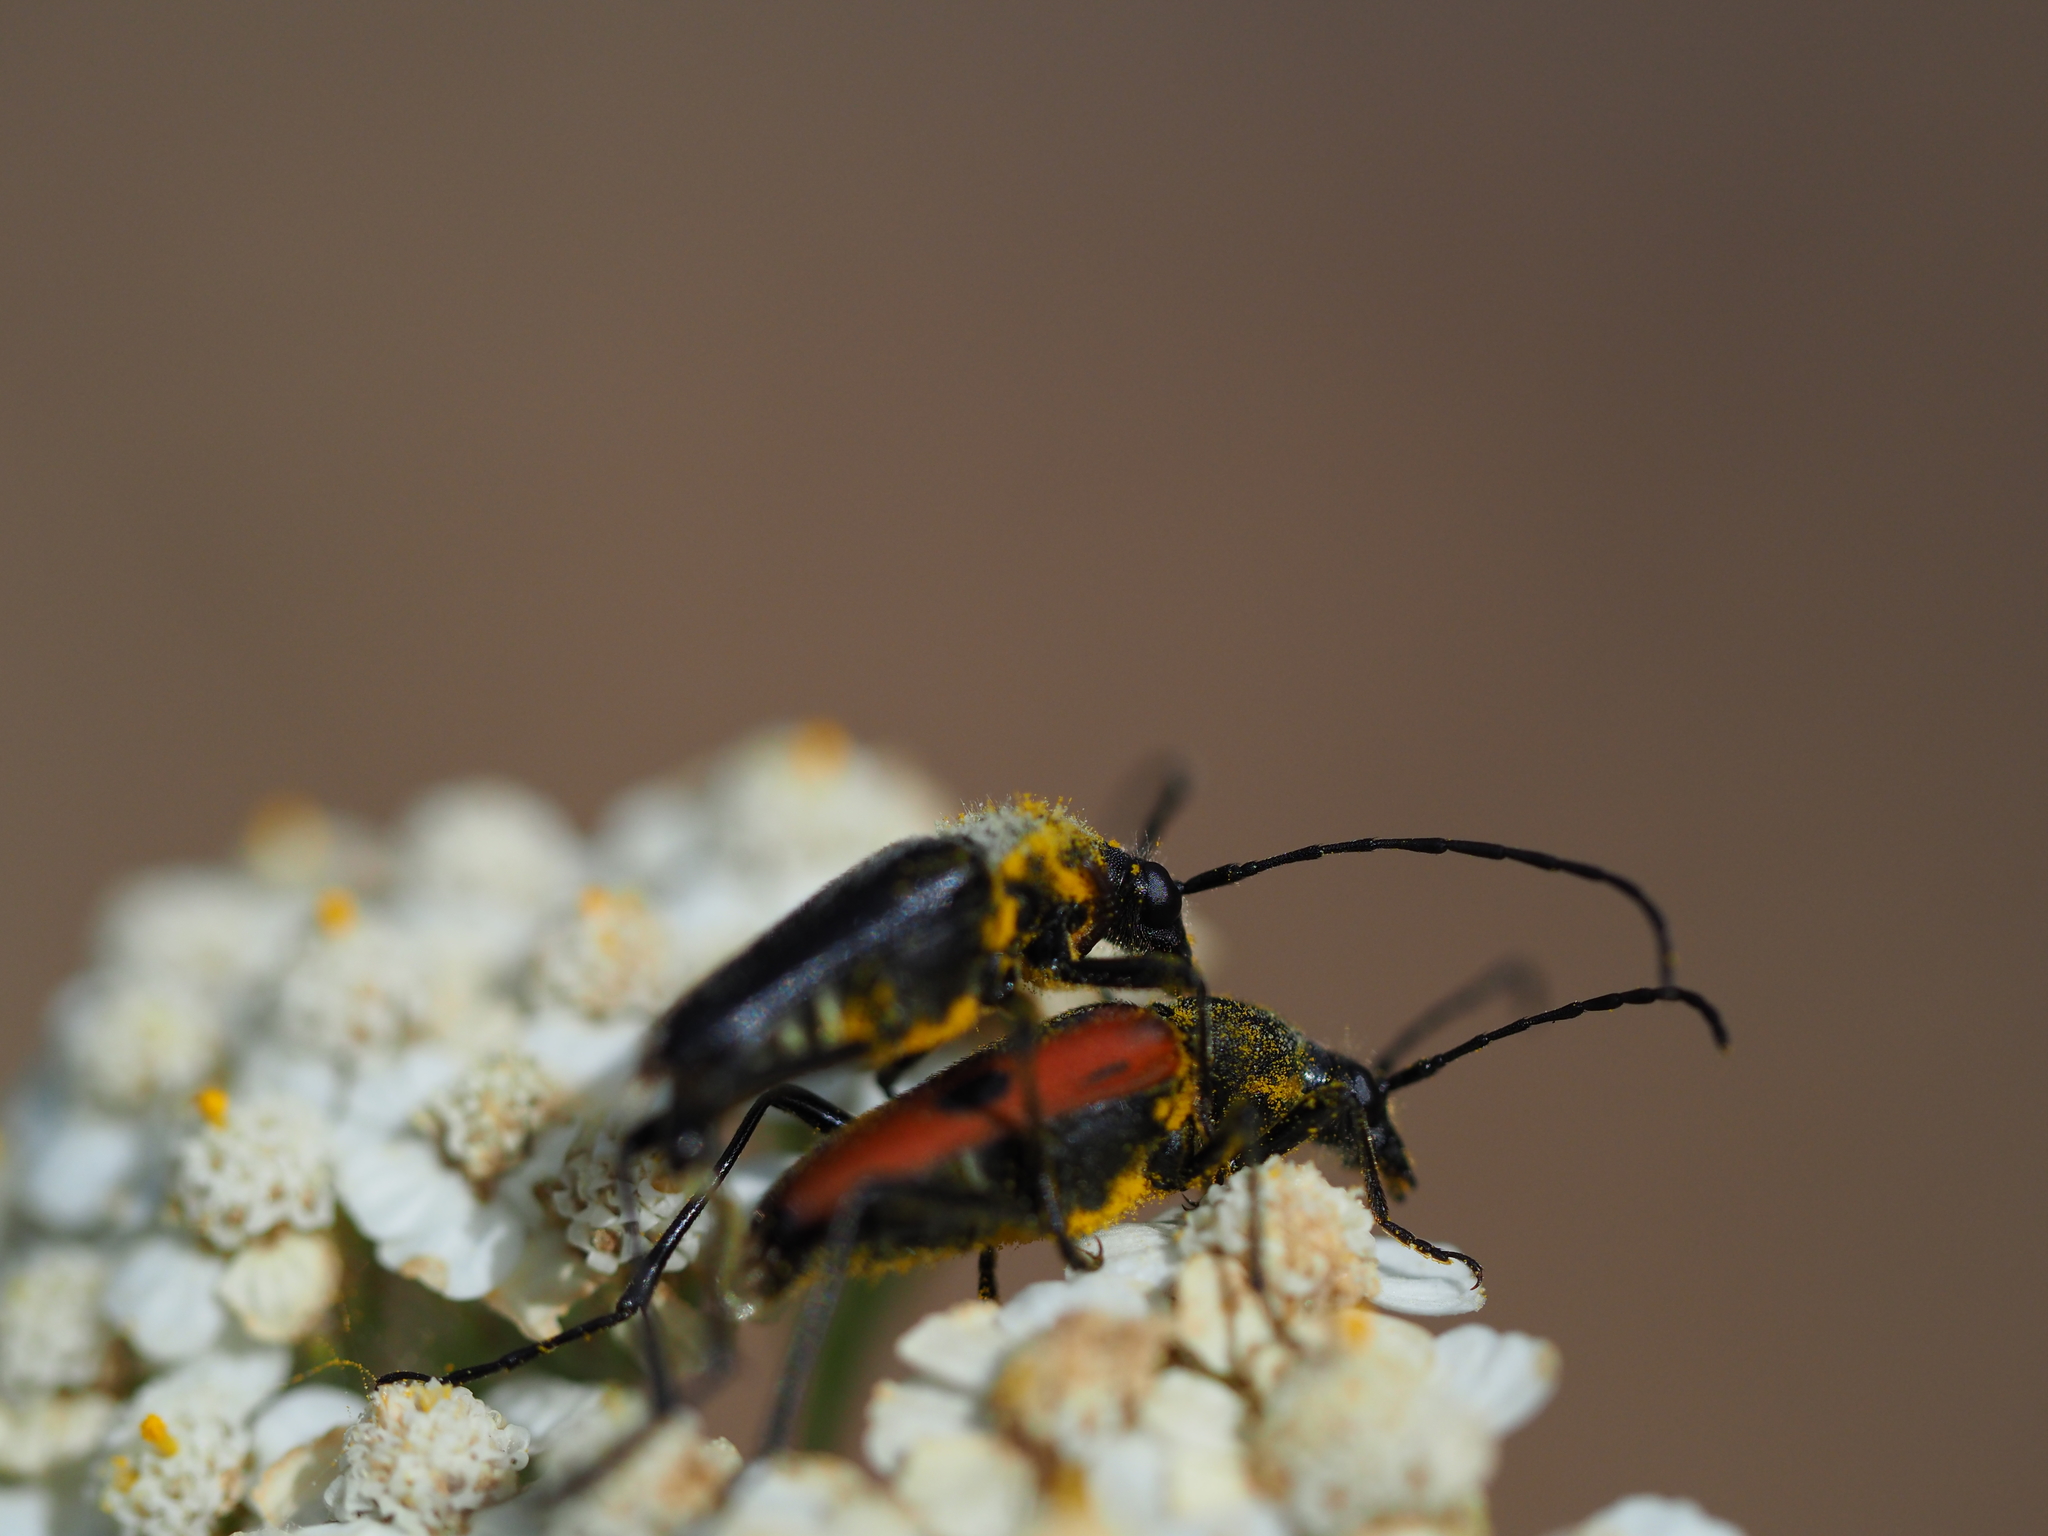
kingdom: Animalia
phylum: Arthropoda
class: Insecta
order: Coleoptera
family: Cerambycidae
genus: Anastrangalia
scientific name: Anastrangalia laetifica
